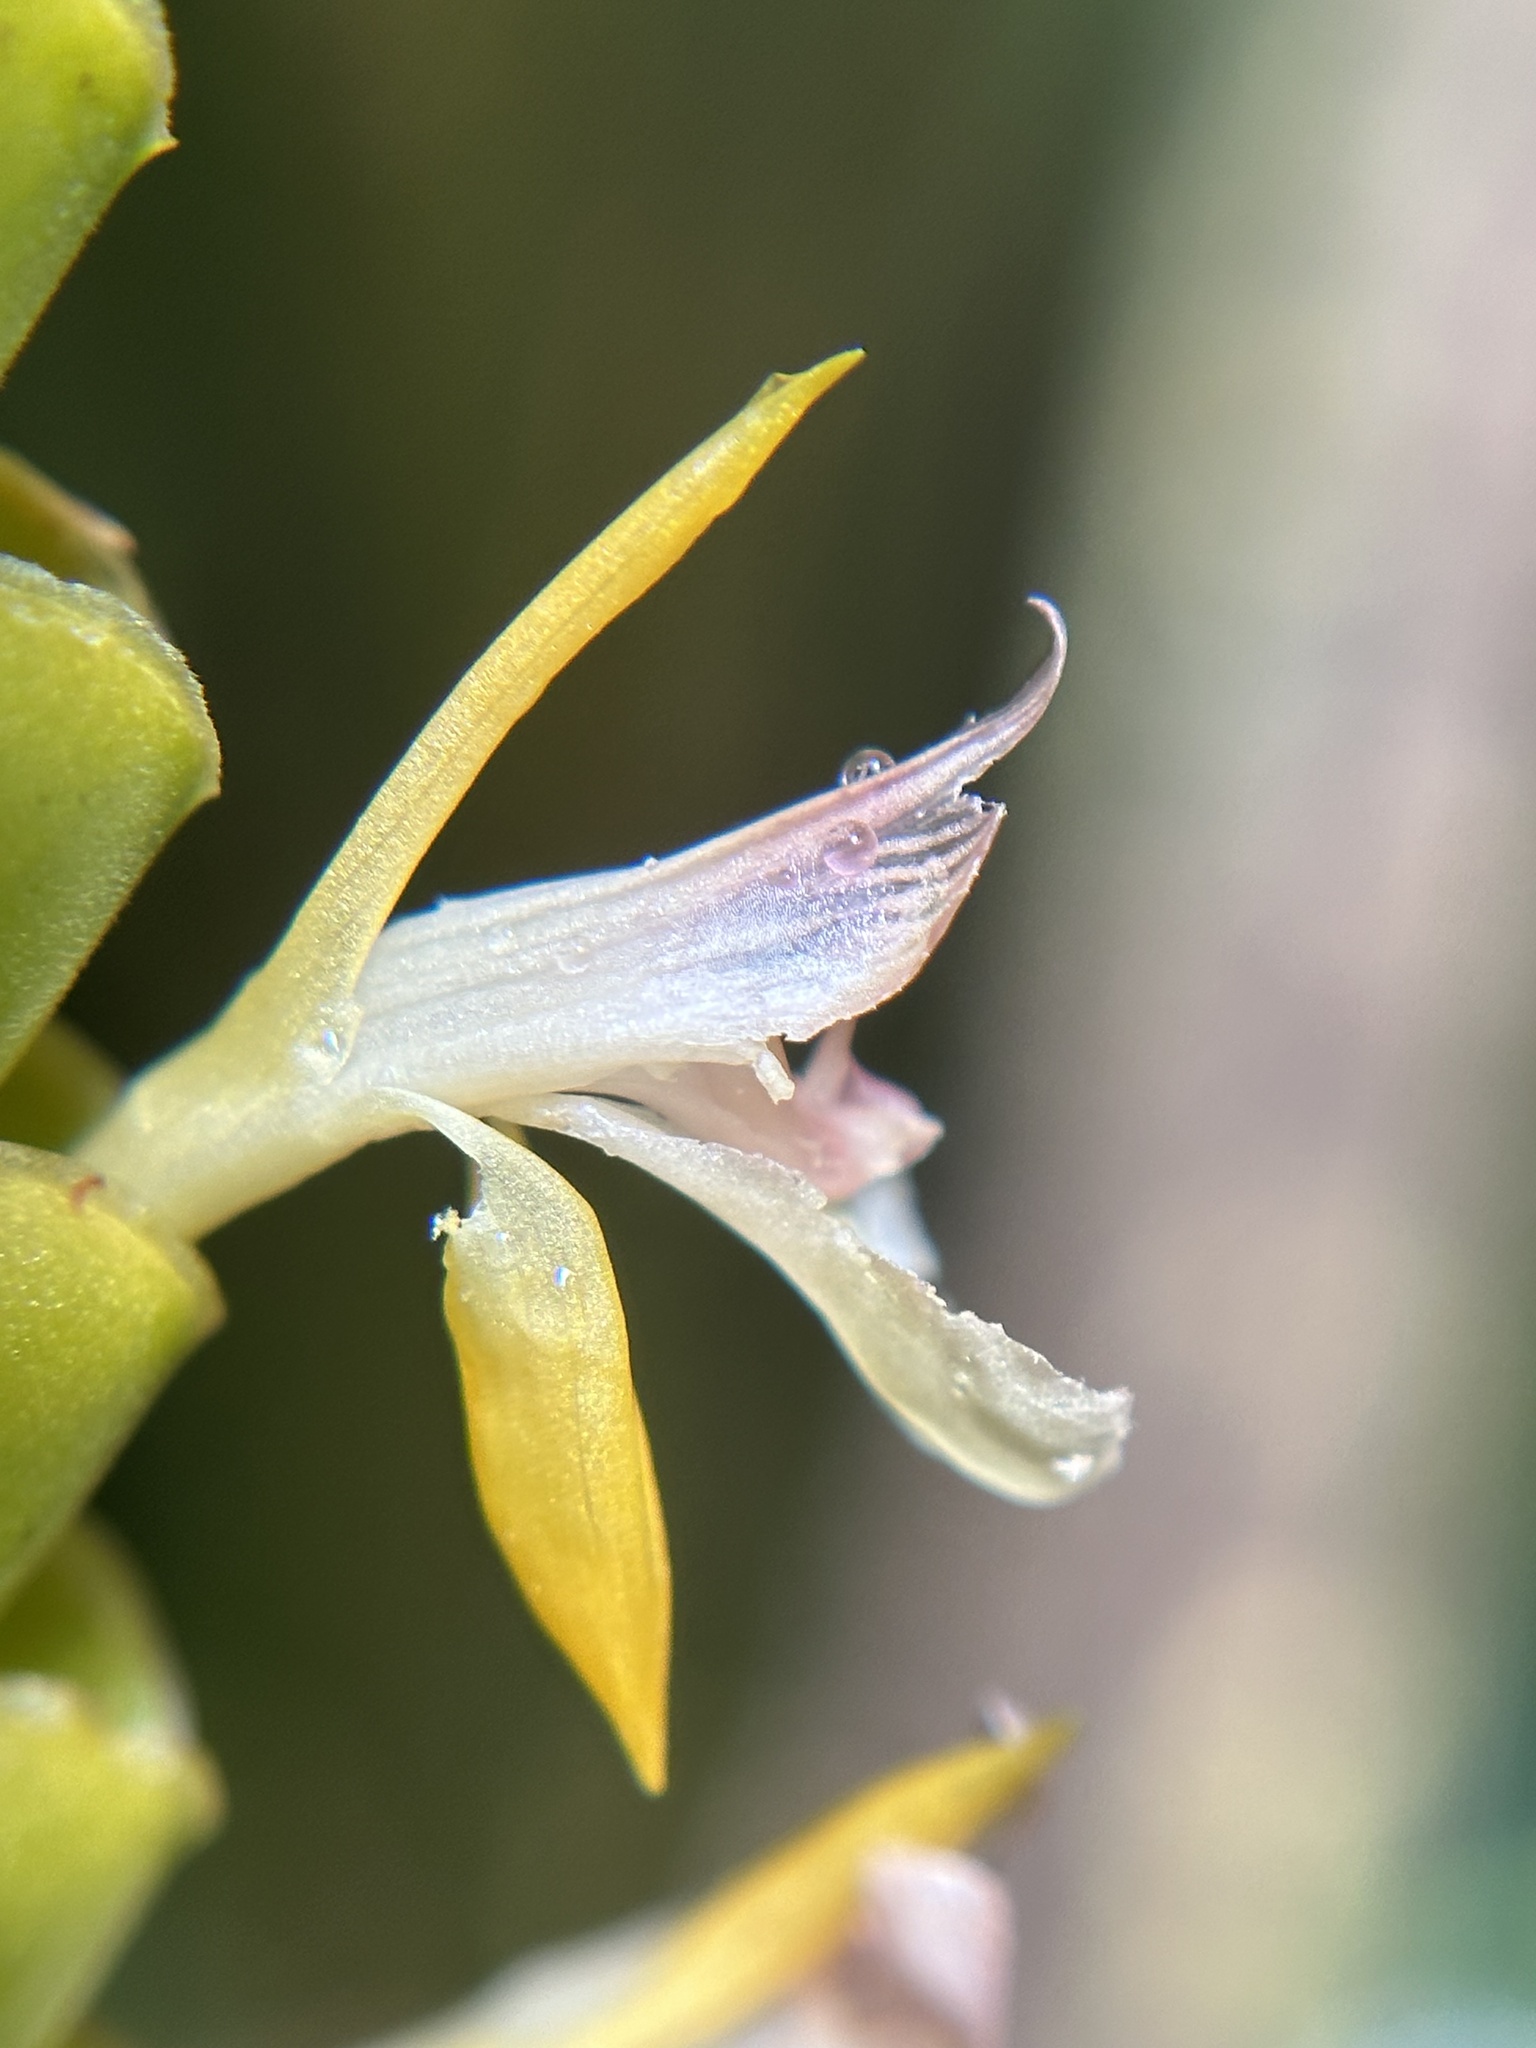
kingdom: Plantae
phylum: Tracheophyta
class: Liliopsida
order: Zingiberales
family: Marantaceae
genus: Calathea
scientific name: Calathea crotalifera
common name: Rattlesnake plant
